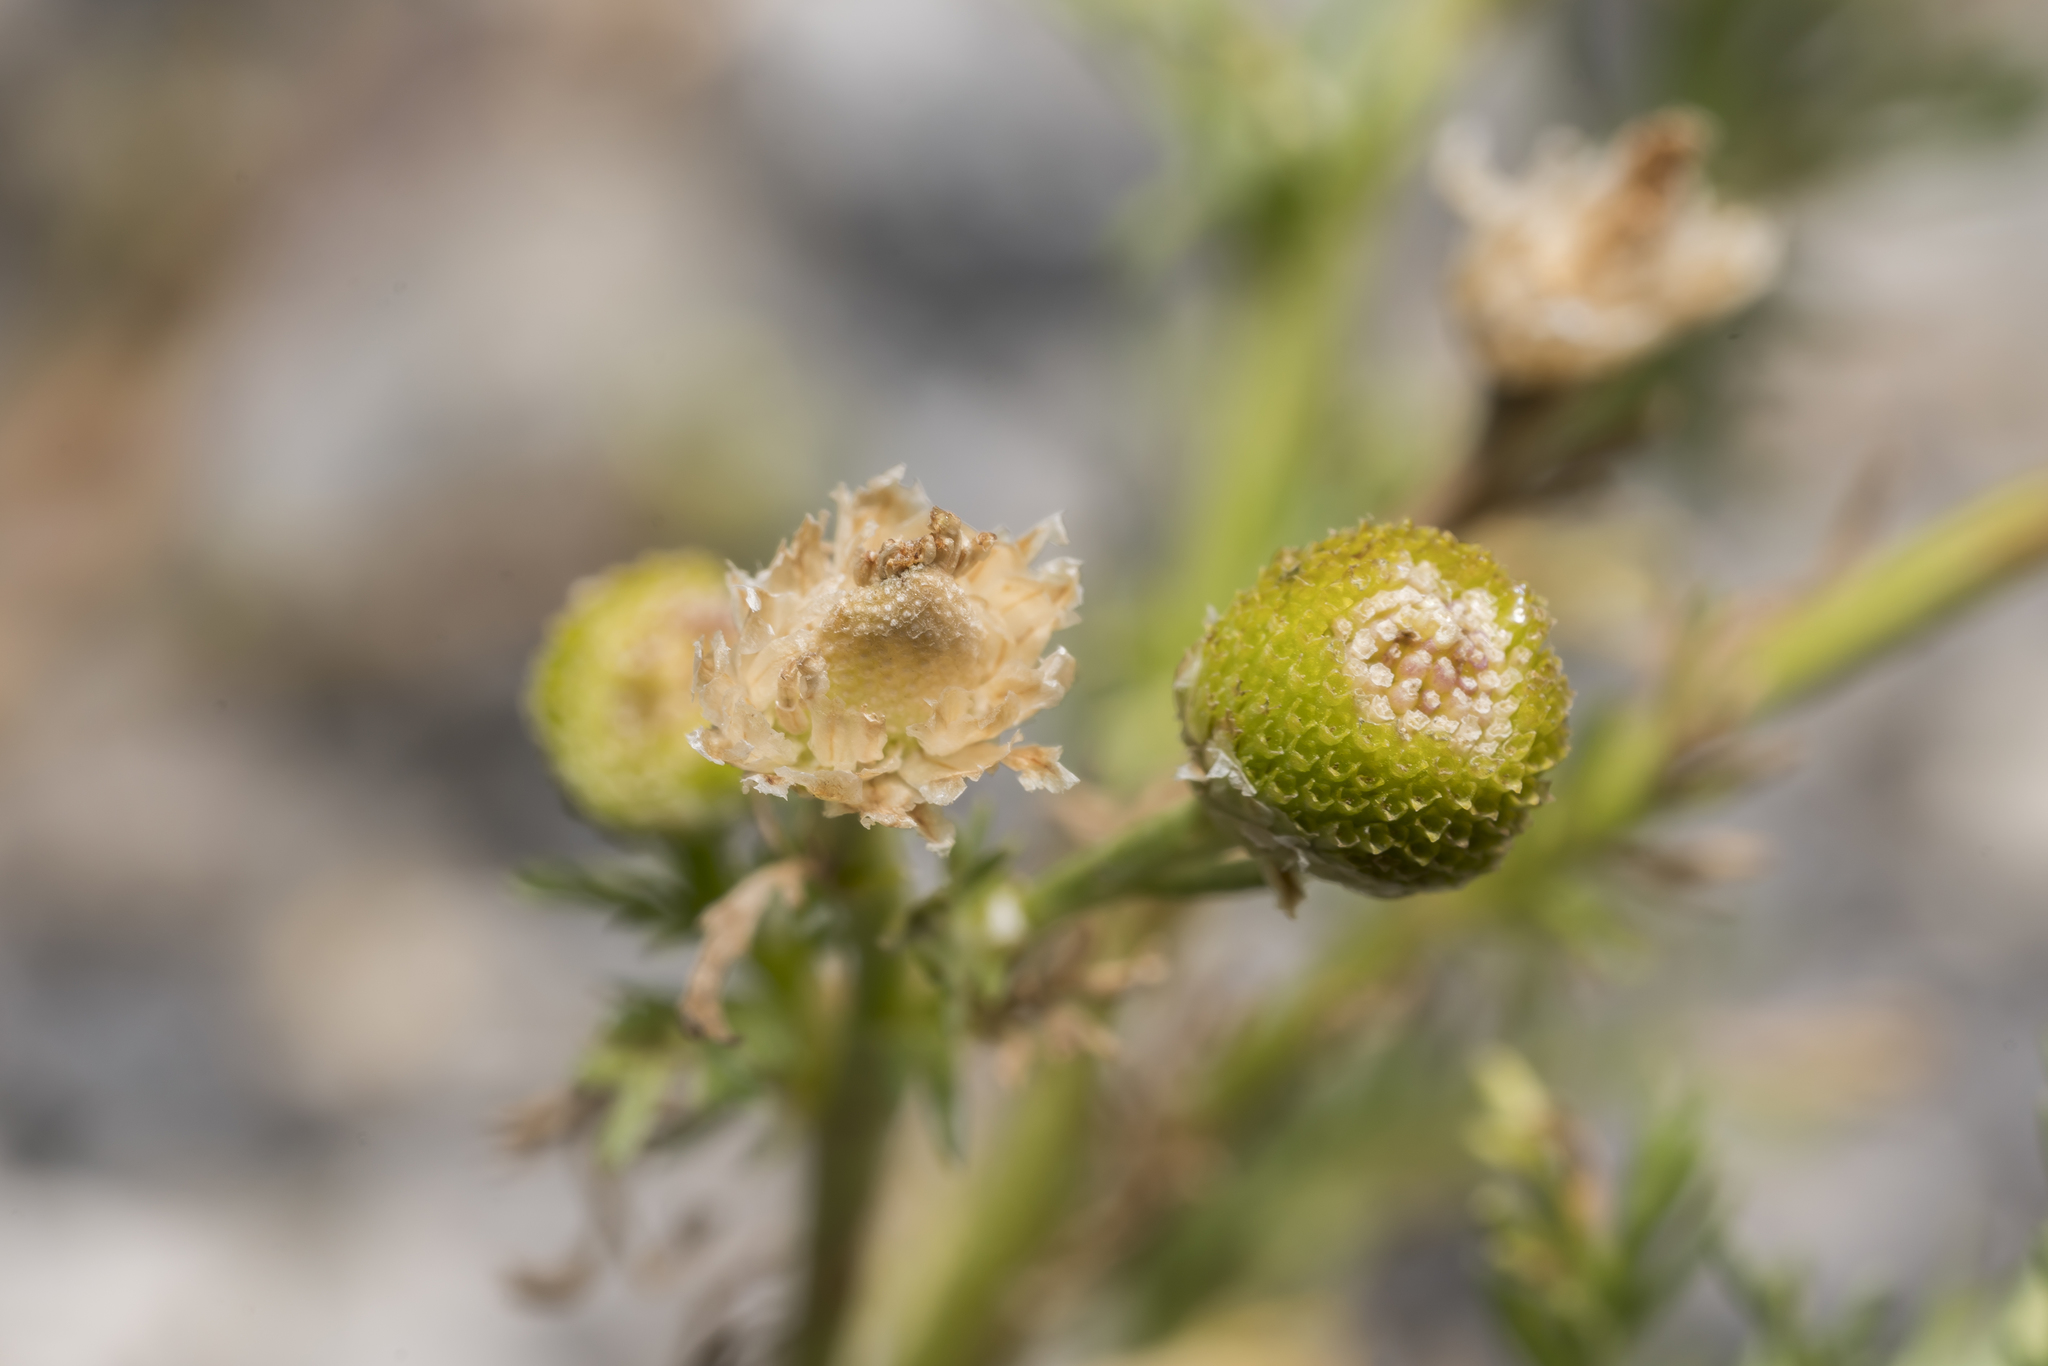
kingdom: Plantae
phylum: Tracheophyta
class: Magnoliopsida
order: Asterales
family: Asteraceae
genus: Matricaria
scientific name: Matricaria discoidea
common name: Disc mayweed
